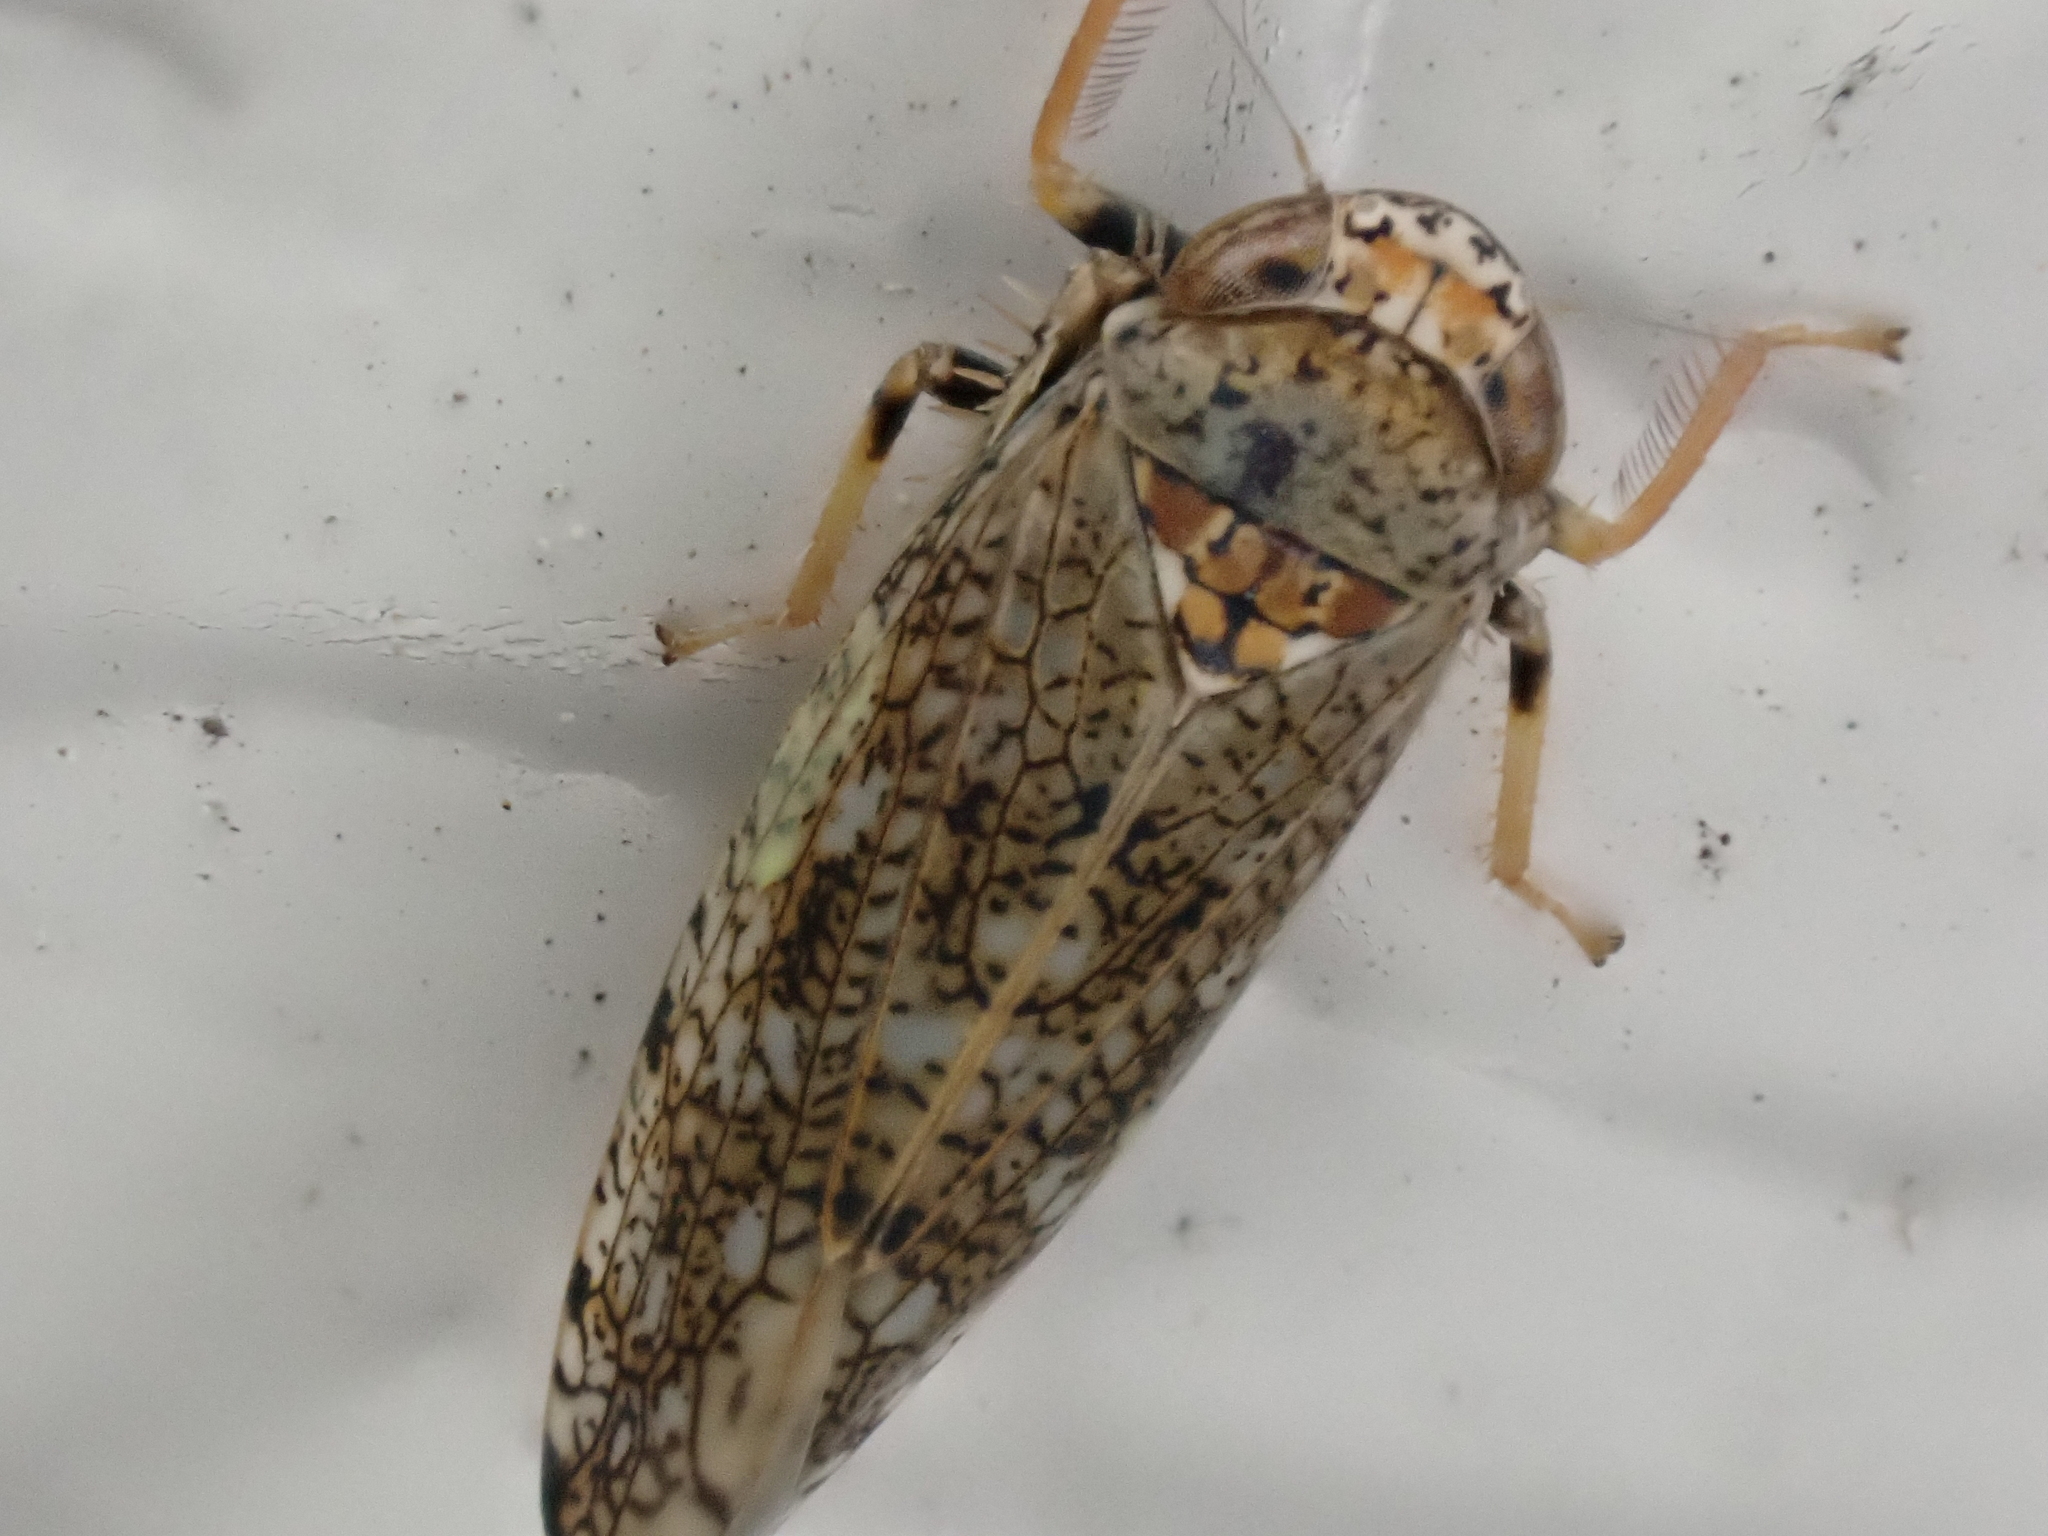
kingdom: Animalia
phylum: Arthropoda
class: Insecta
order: Hemiptera
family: Cicadellidae
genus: Orientus
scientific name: Orientus ishidae
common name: Japanese leafhopper
